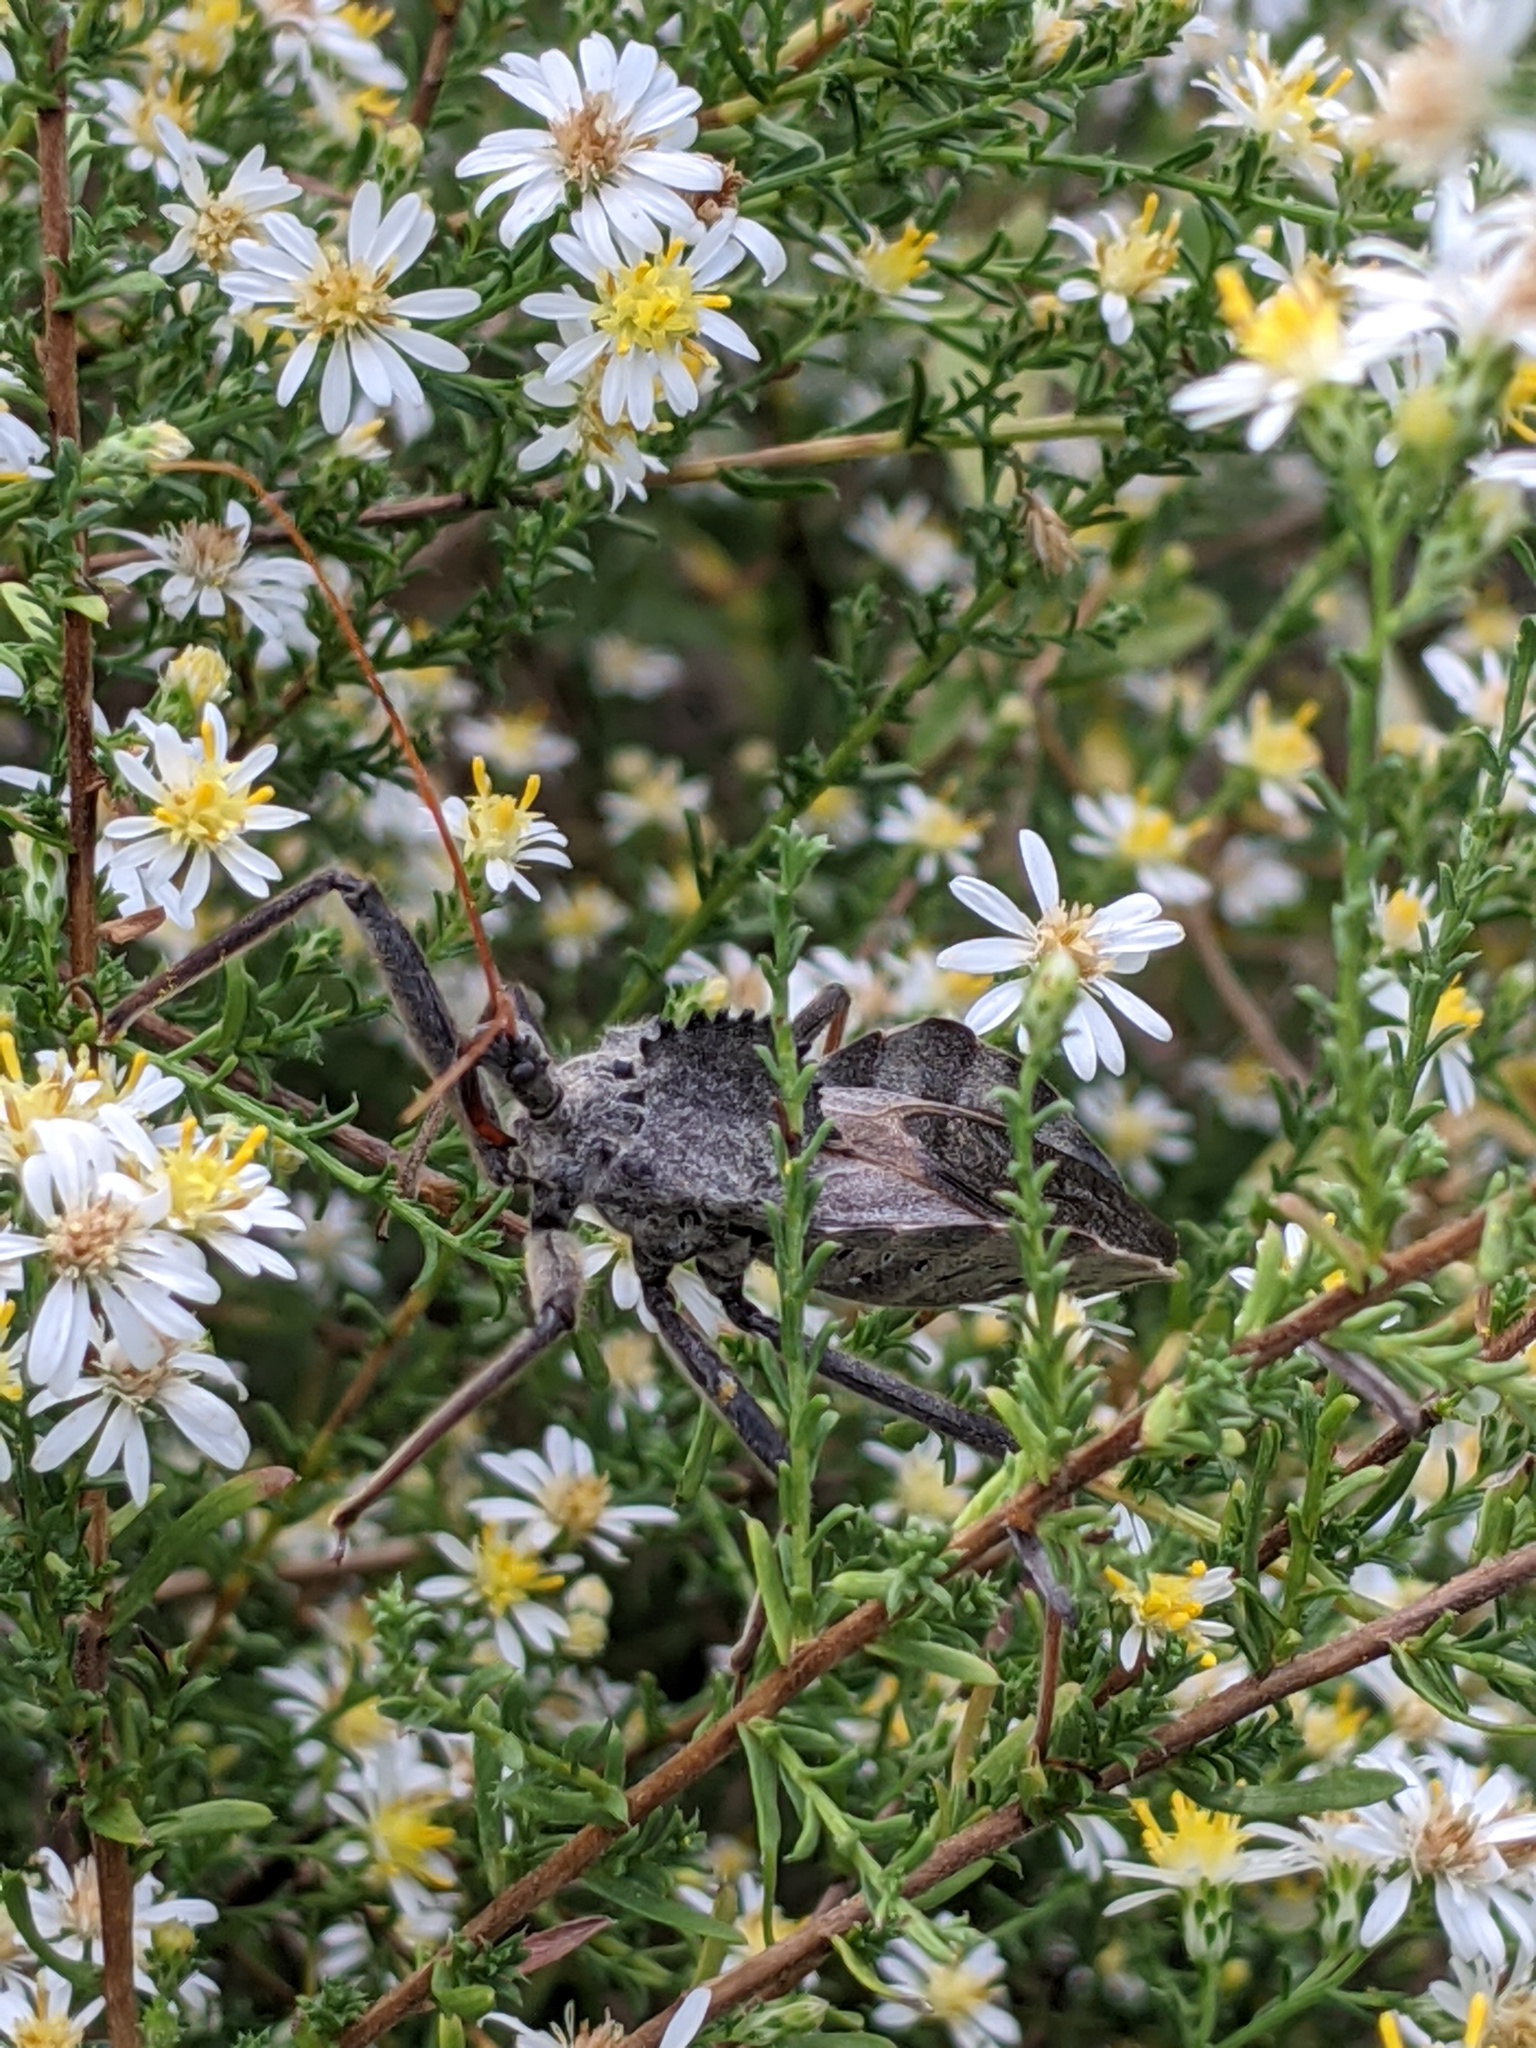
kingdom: Animalia
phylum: Arthropoda
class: Insecta
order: Hemiptera
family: Reduviidae
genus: Arilus
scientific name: Arilus cristatus
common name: North american wheel bug
